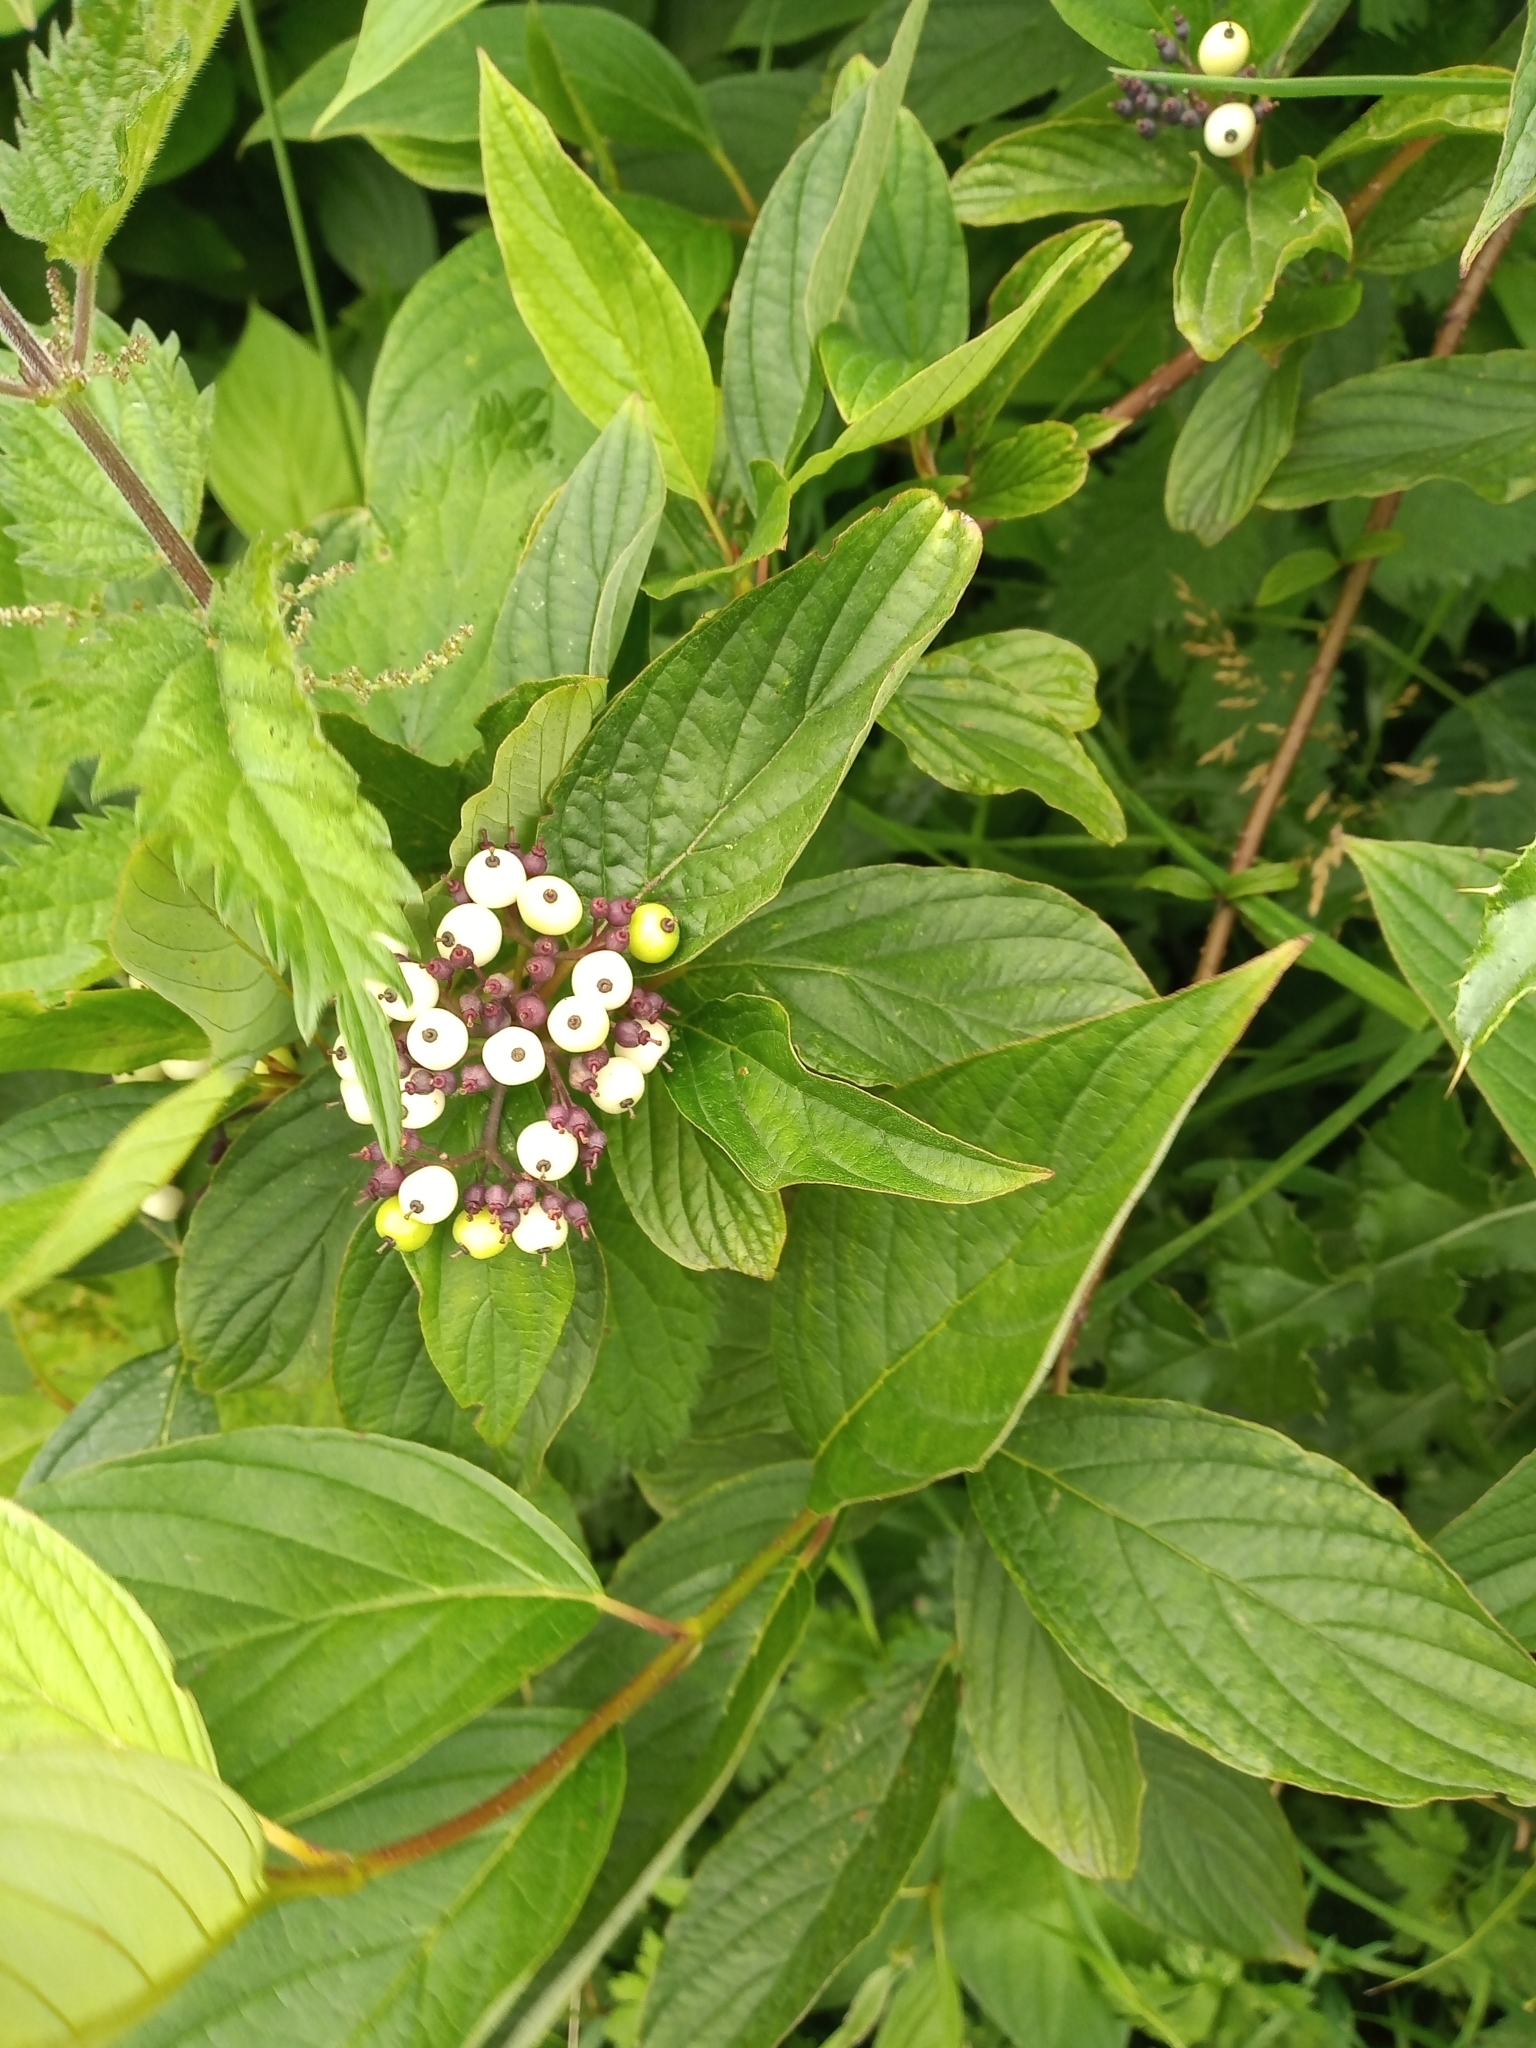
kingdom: Plantae
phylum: Tracheophyta
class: Magnoliopsida
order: Cornales
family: Cornaceae
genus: Cornus
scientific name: Cornus alba
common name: White dogwood
